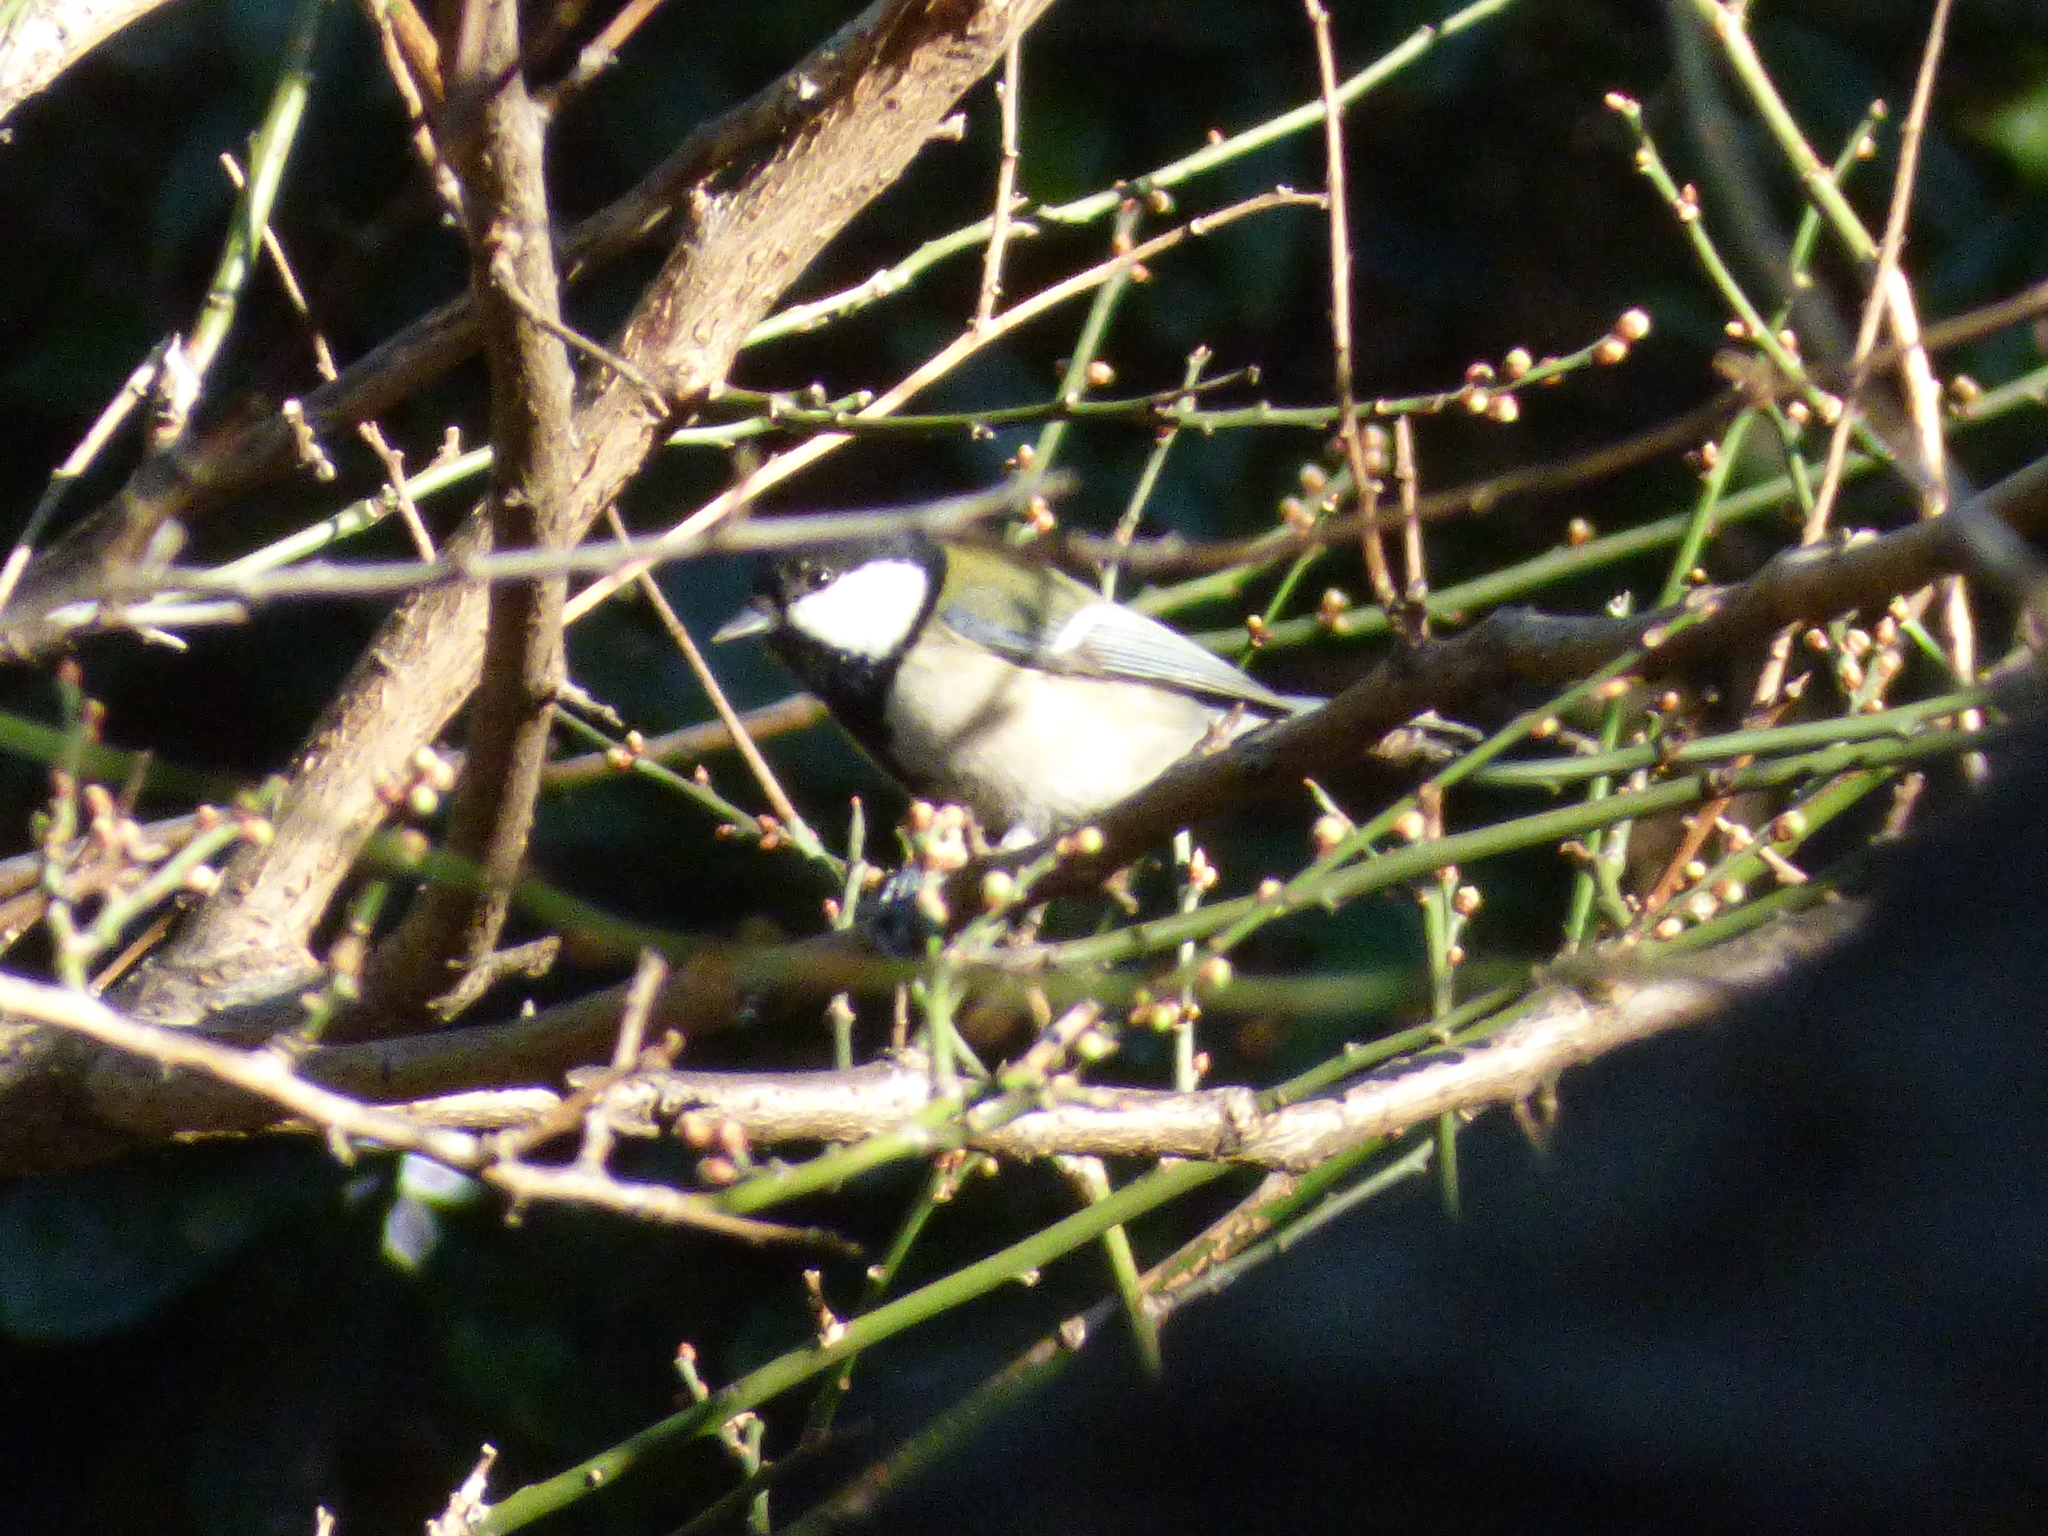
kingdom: Animalia
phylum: Chordata
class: Aves
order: Passeriformes
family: Paridae
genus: Parus
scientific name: Parus minor
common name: Japanese tit
